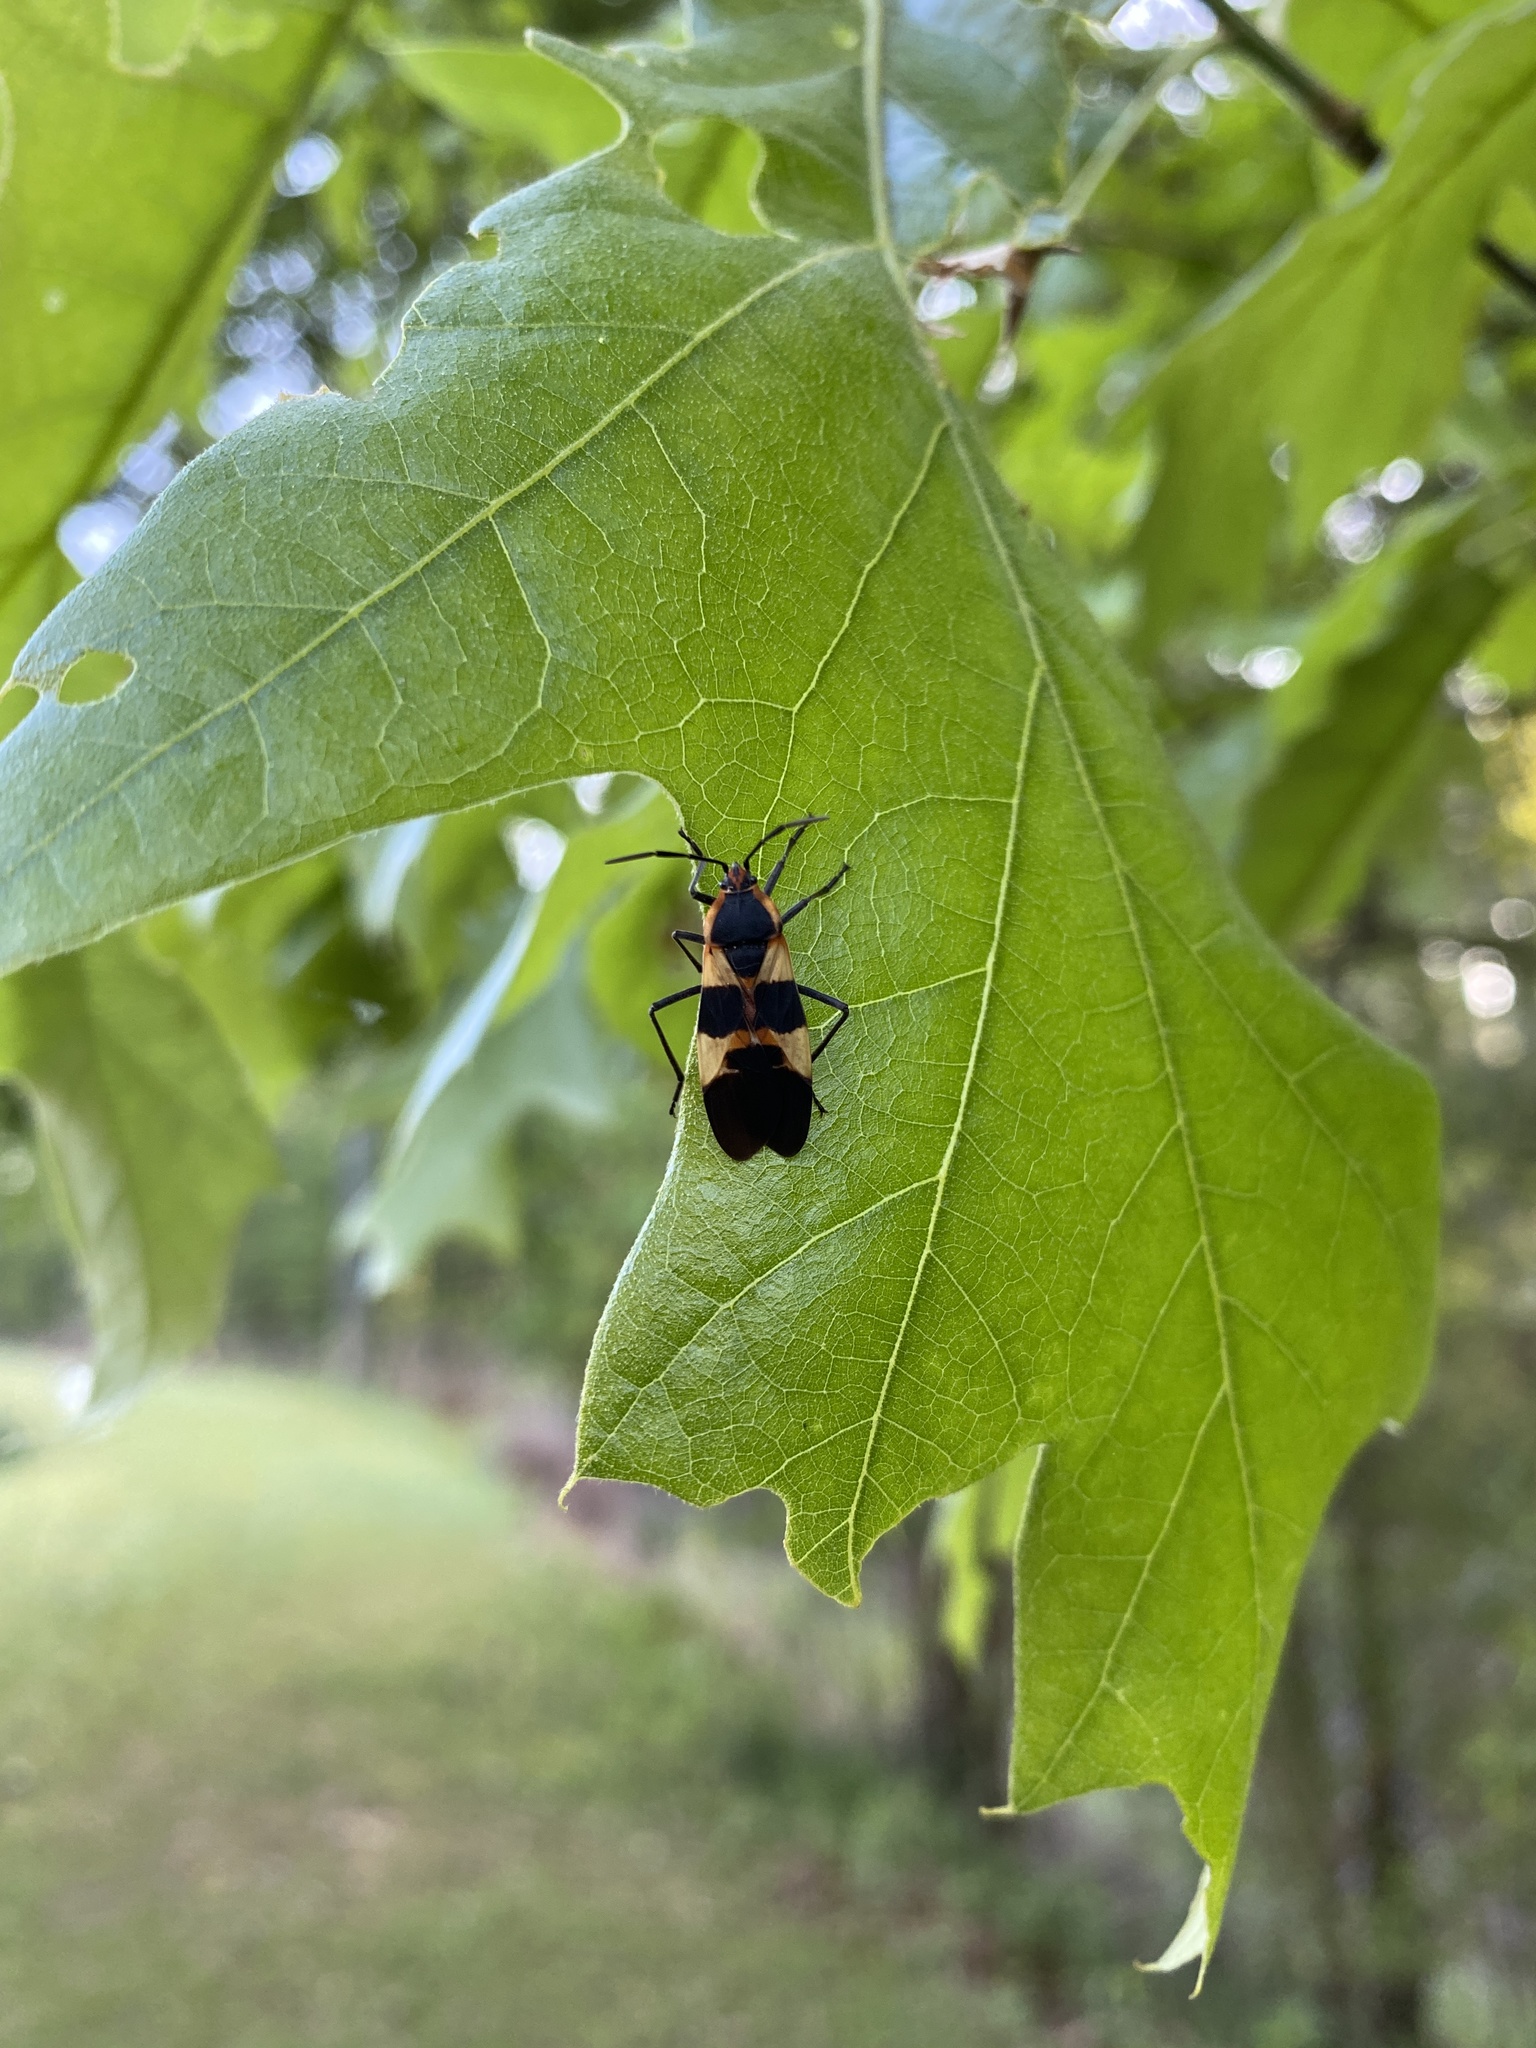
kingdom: Animalia
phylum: Arthropoda
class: Insecta
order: Hemiptera
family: Lygaeidae
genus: Oncopeltus
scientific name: Oncopeltus fasciatus
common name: Large milkweed bug
